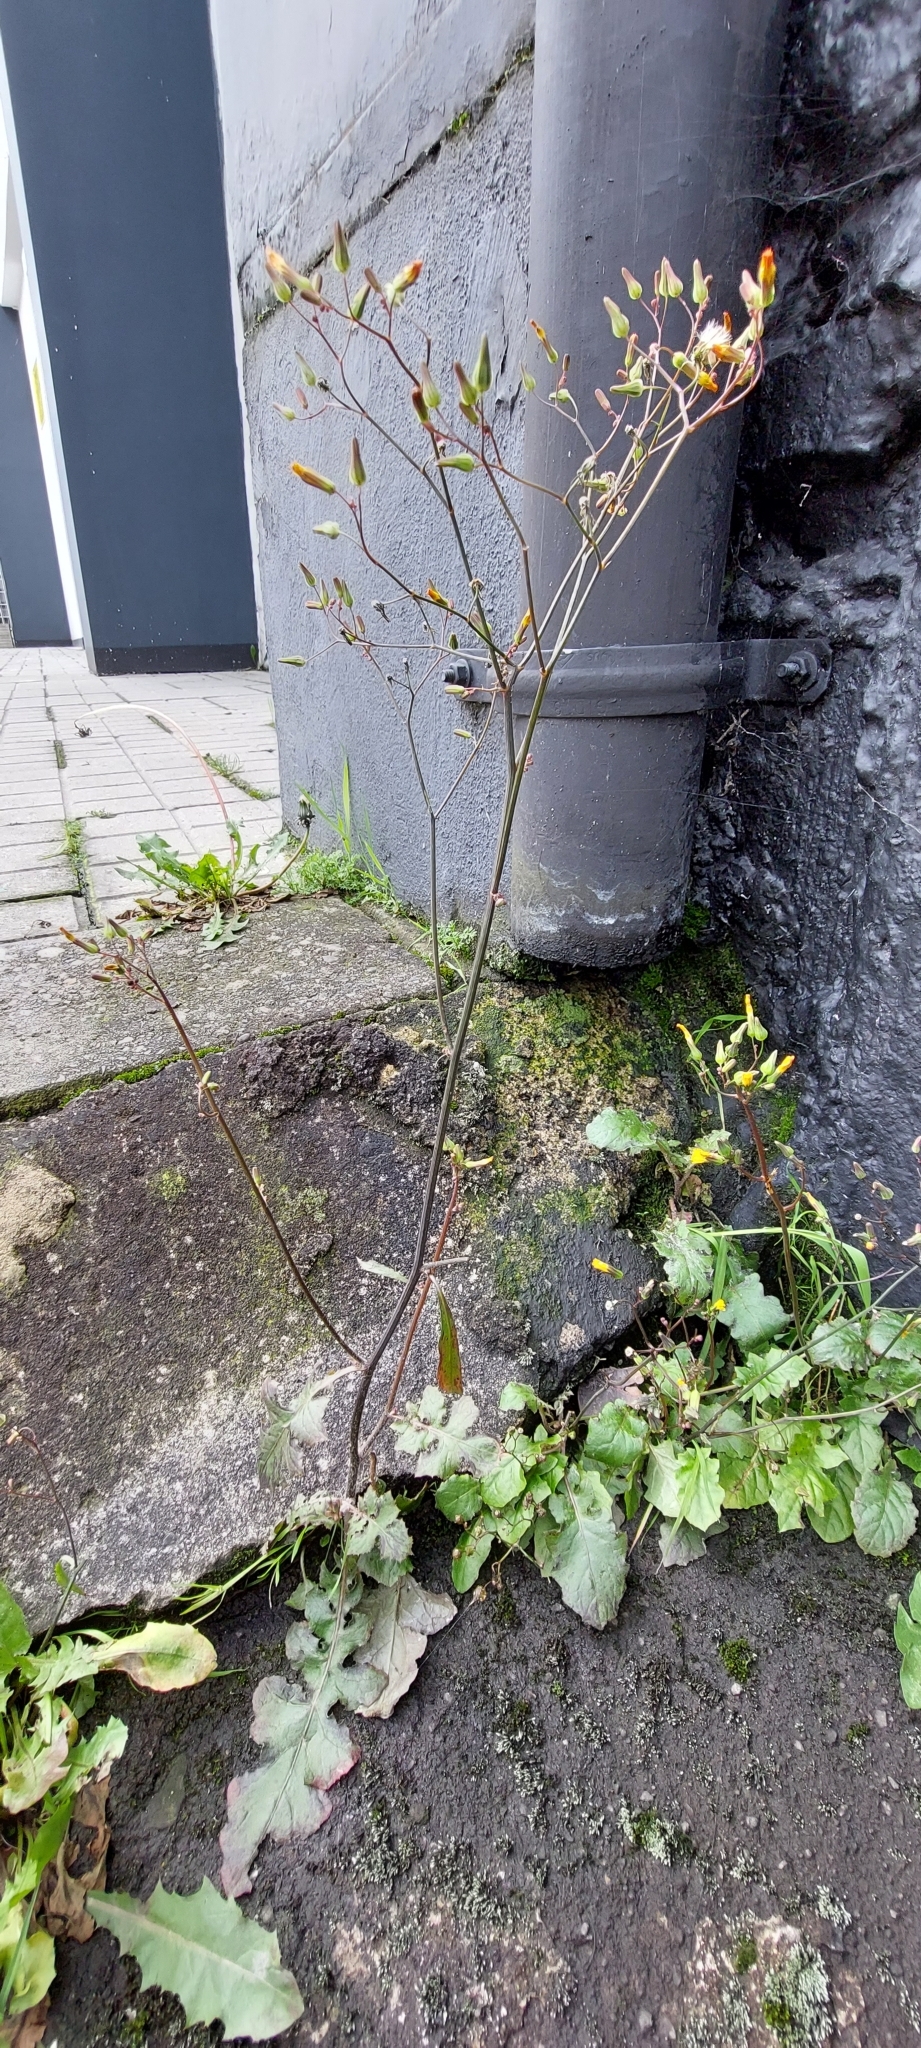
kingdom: Plantae
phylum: Tracheophyta
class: Magnoliopsida
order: Asterales
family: Asteraceae
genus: Youngia
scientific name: Youngia japonica
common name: Oriental false hawksbeard
